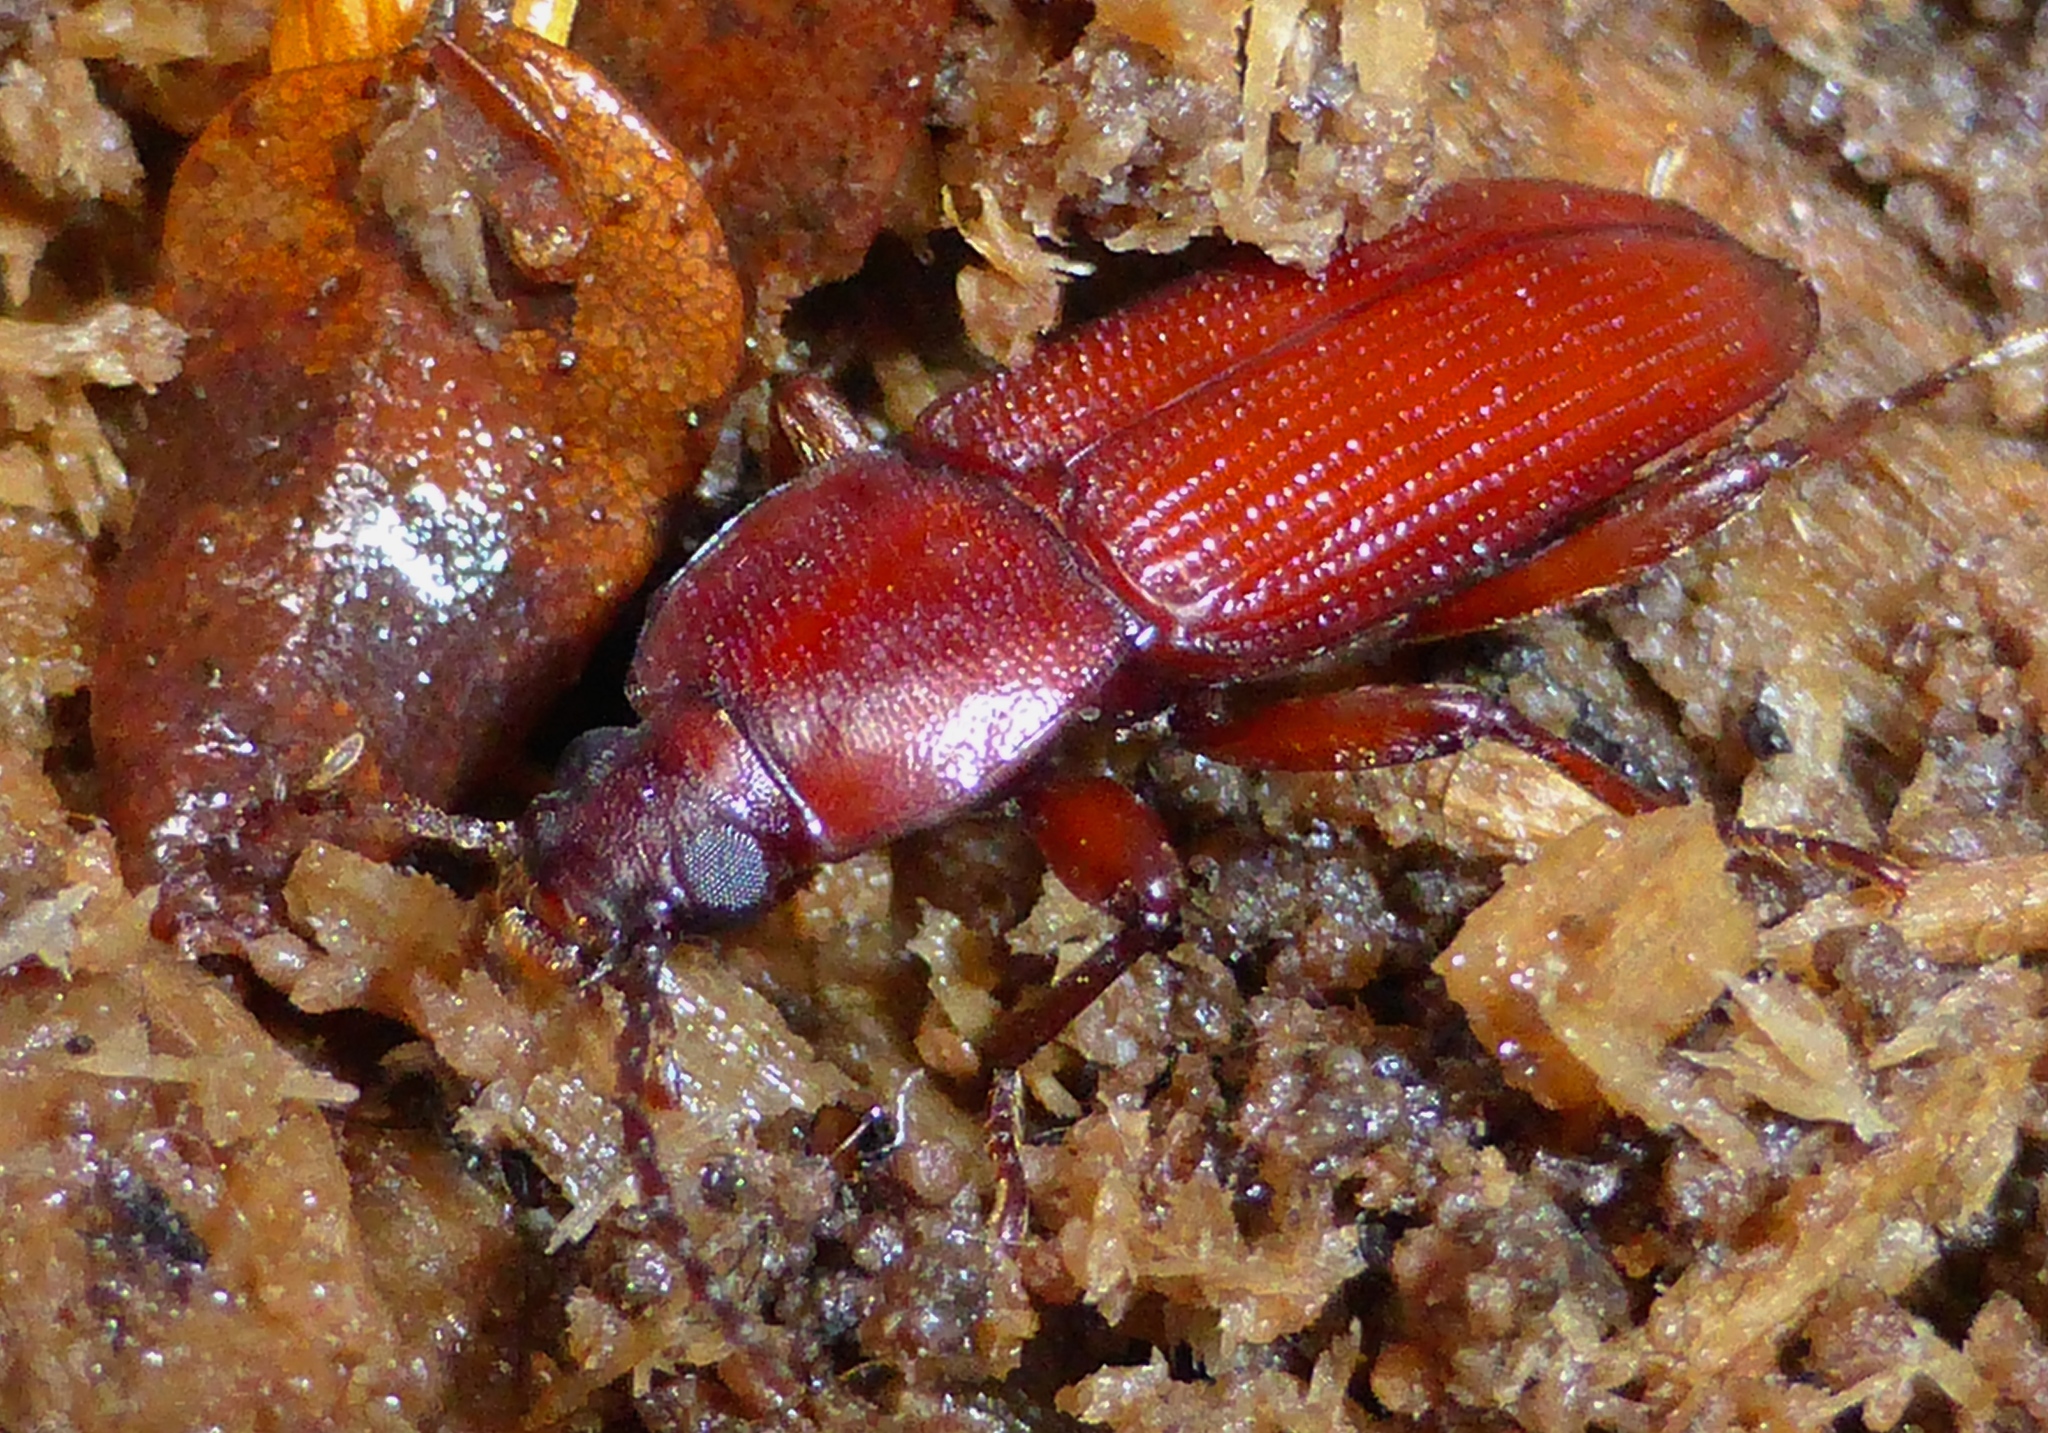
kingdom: Animalia
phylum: Arthropoda
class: Insecta
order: Coleoptera
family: Tenebrionidae
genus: Zolodinus
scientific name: Zolodinus
